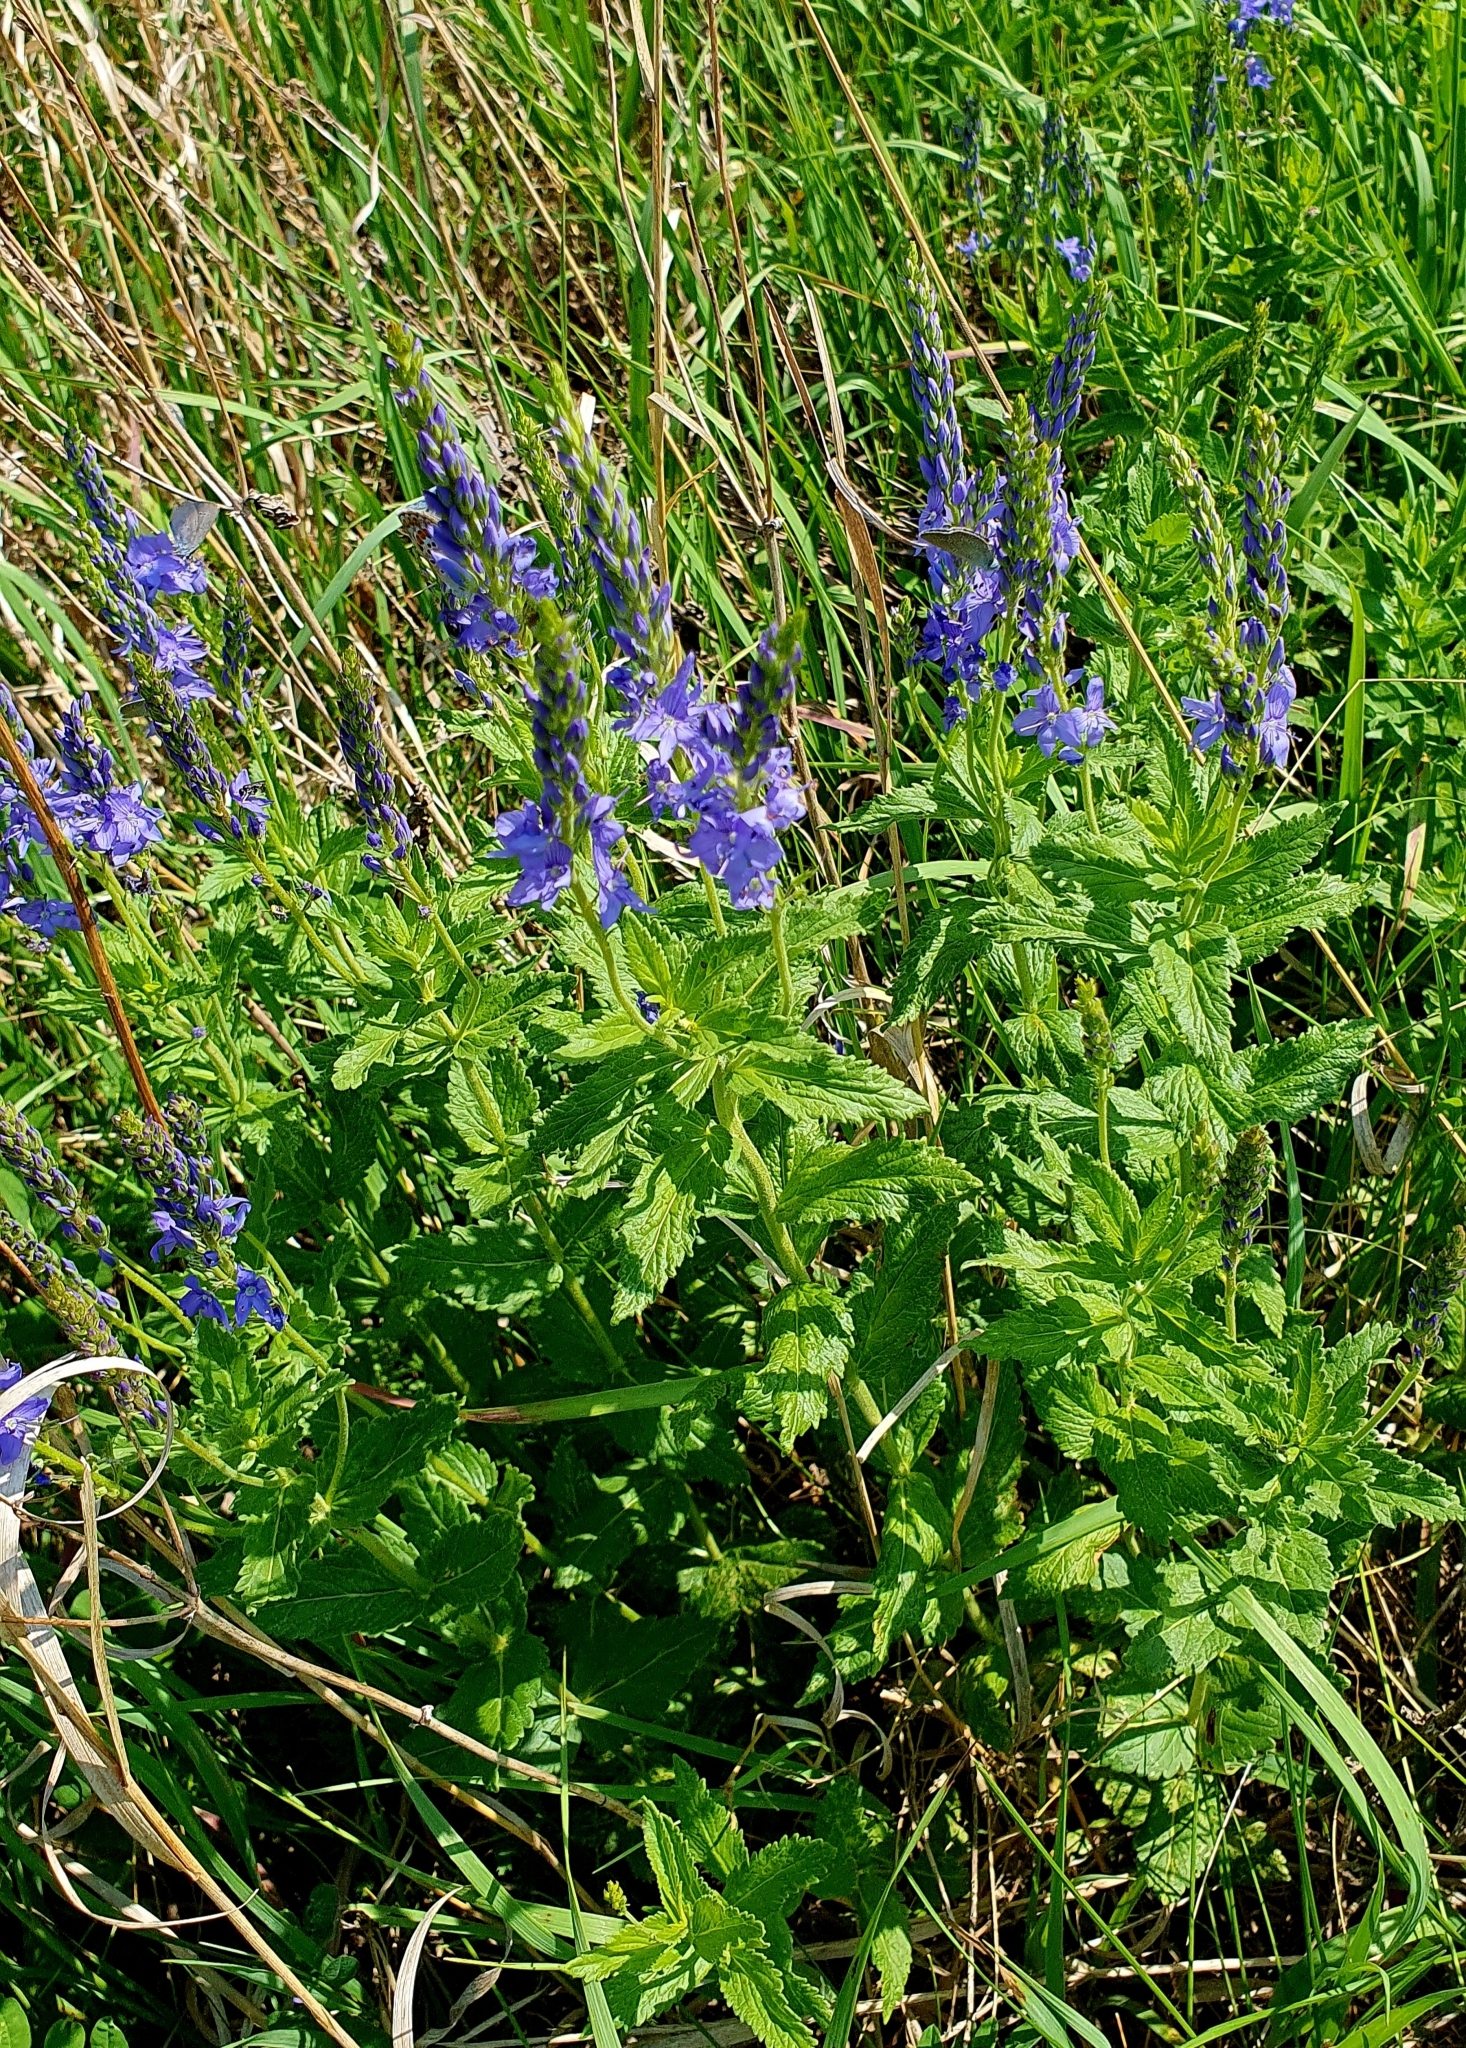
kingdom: Plantae
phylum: Tracheophyta
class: Magnoliopsida
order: Lamiales
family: Plantaginaceae
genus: Veronica
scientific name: Veronica teucrium
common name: Large speedwell
